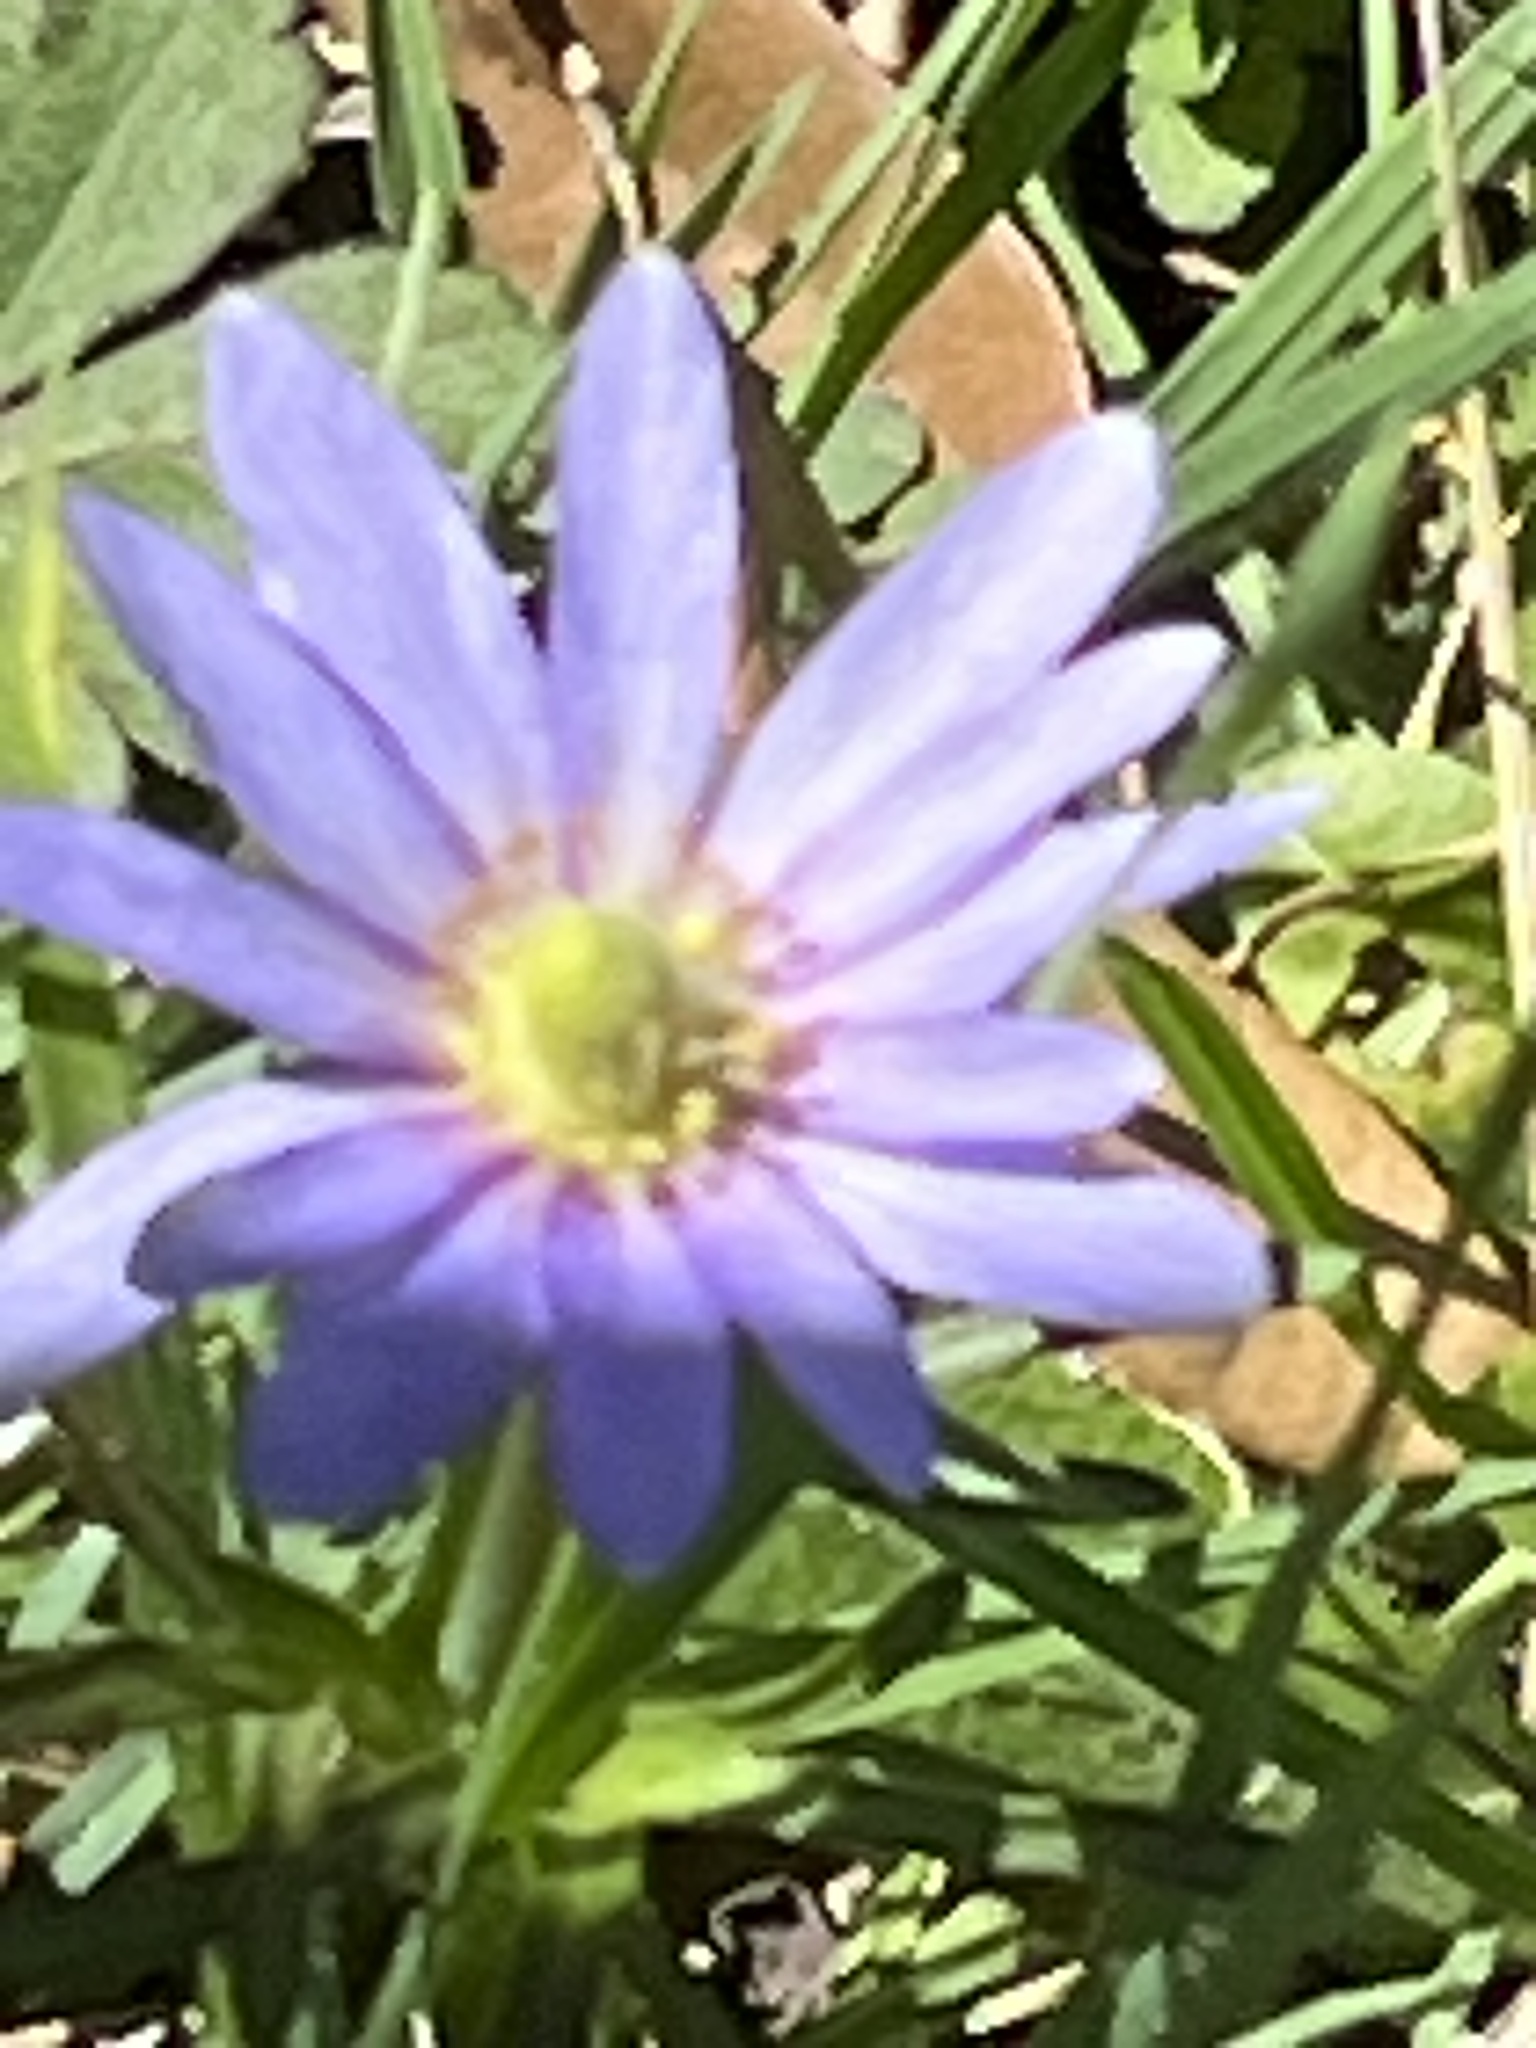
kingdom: Plantae
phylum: Tracheophyta
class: Magnoliopsida
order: Ranunculales
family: Ranunculaceae
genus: Anemone
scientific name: Anemone berlandieri
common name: Ten-petal anemone
